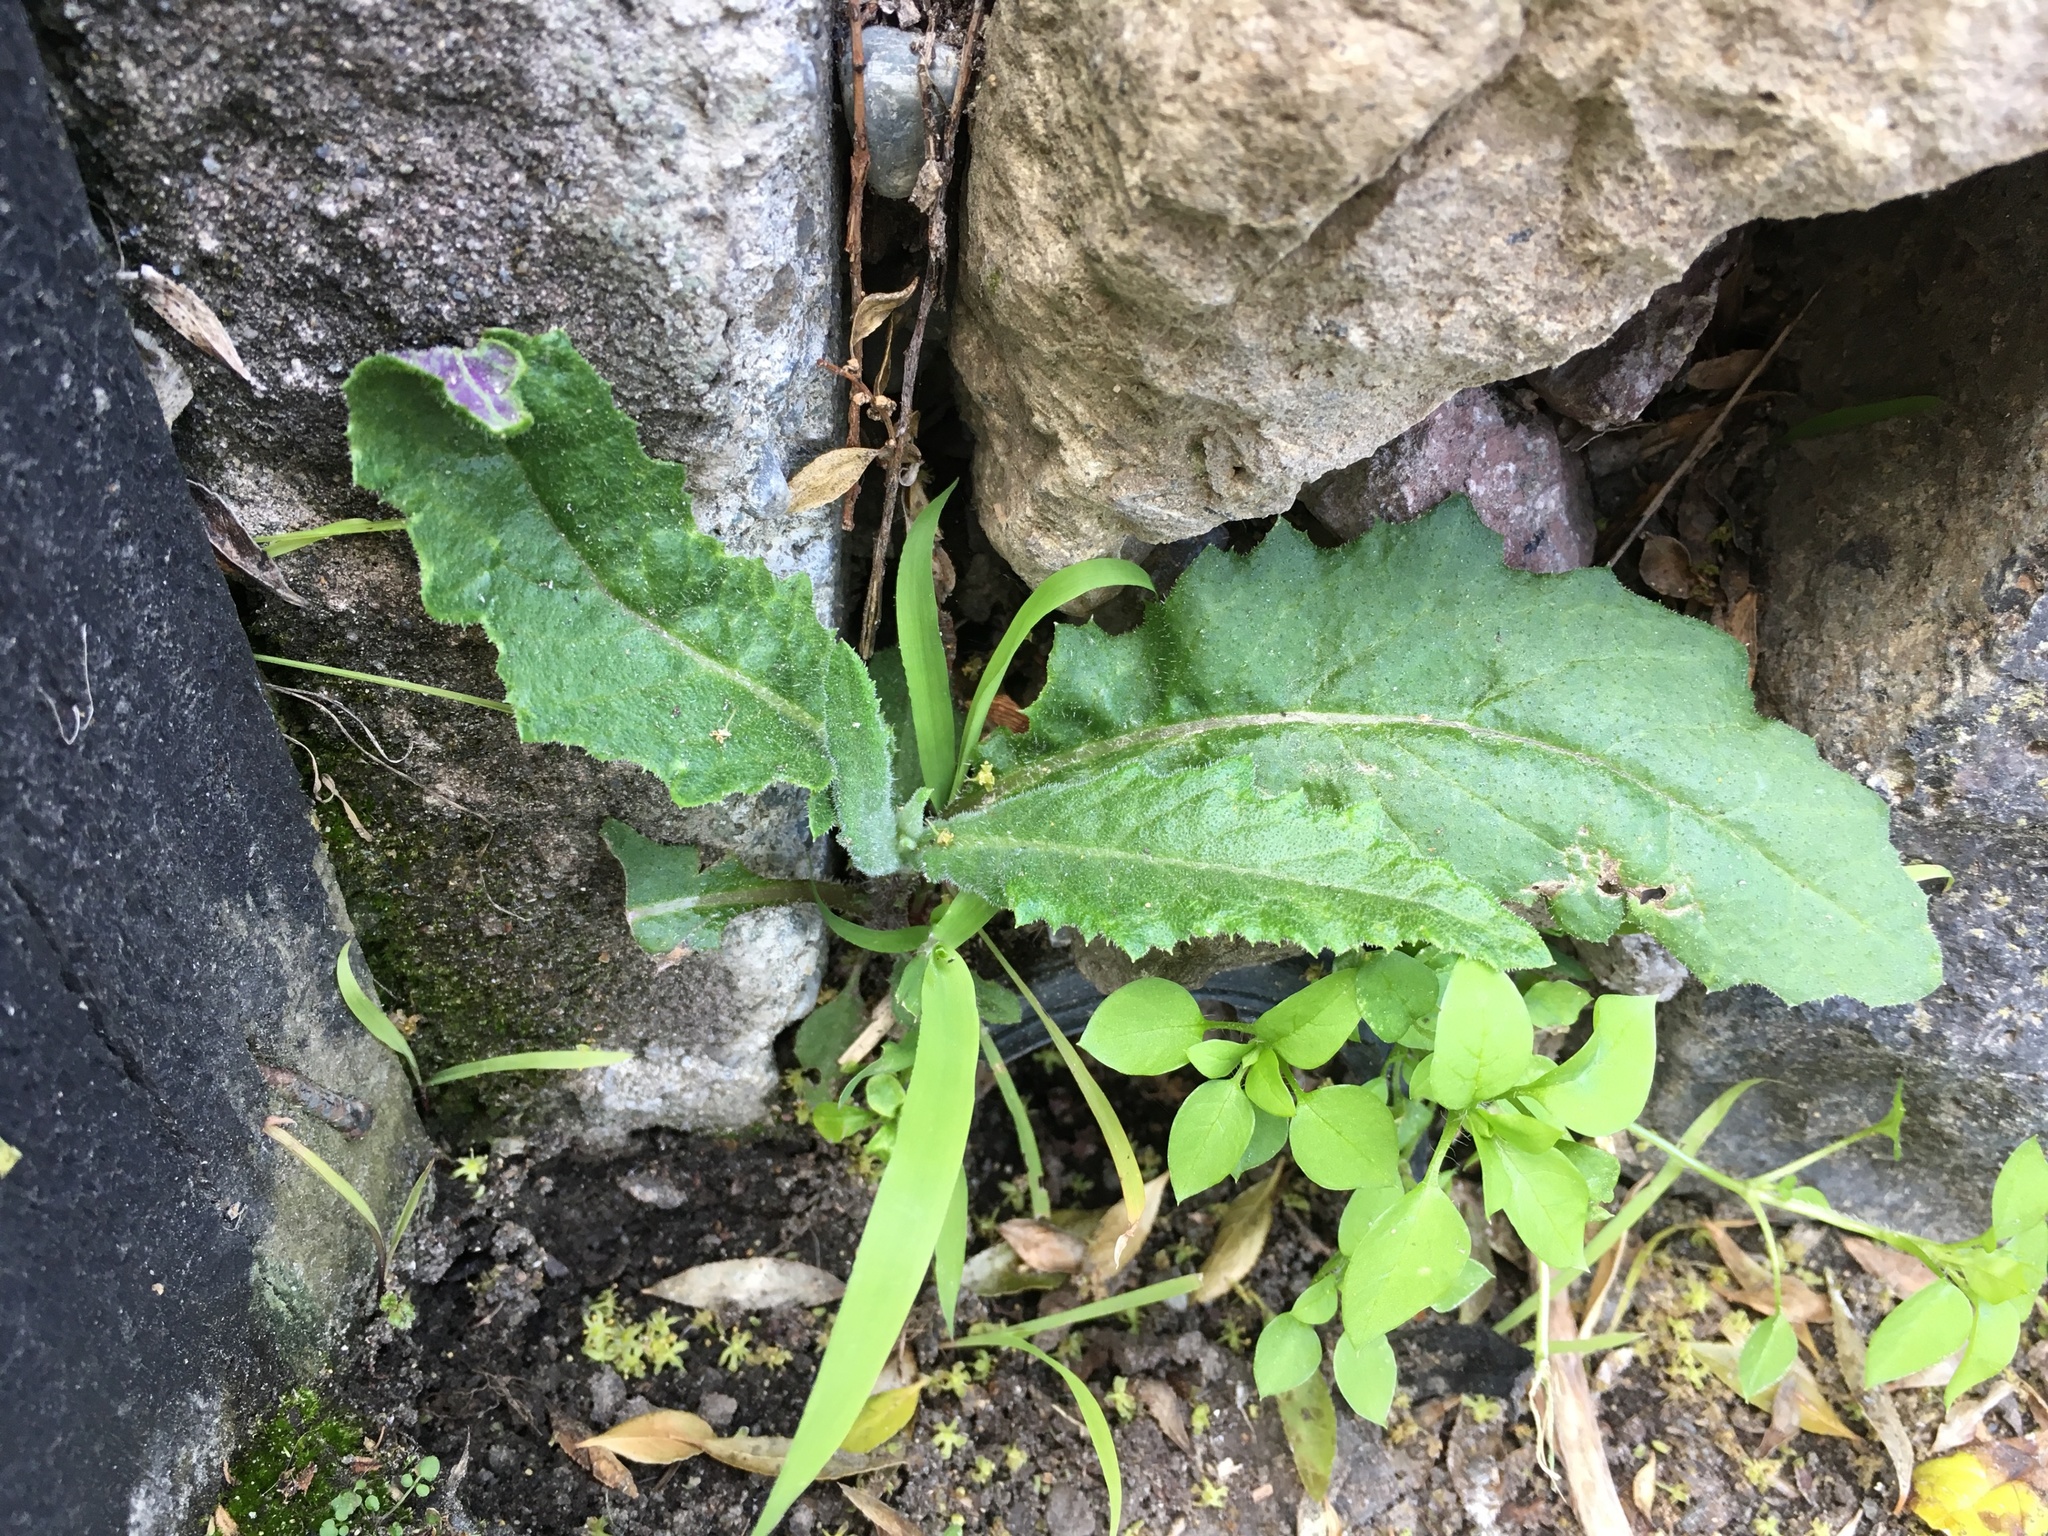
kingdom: Plantae
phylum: Tracheophyta
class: Magnoliopsida
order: Asterales
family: Asteraceae
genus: Senecio
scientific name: Senecio minimus
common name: Toothed fireweed
